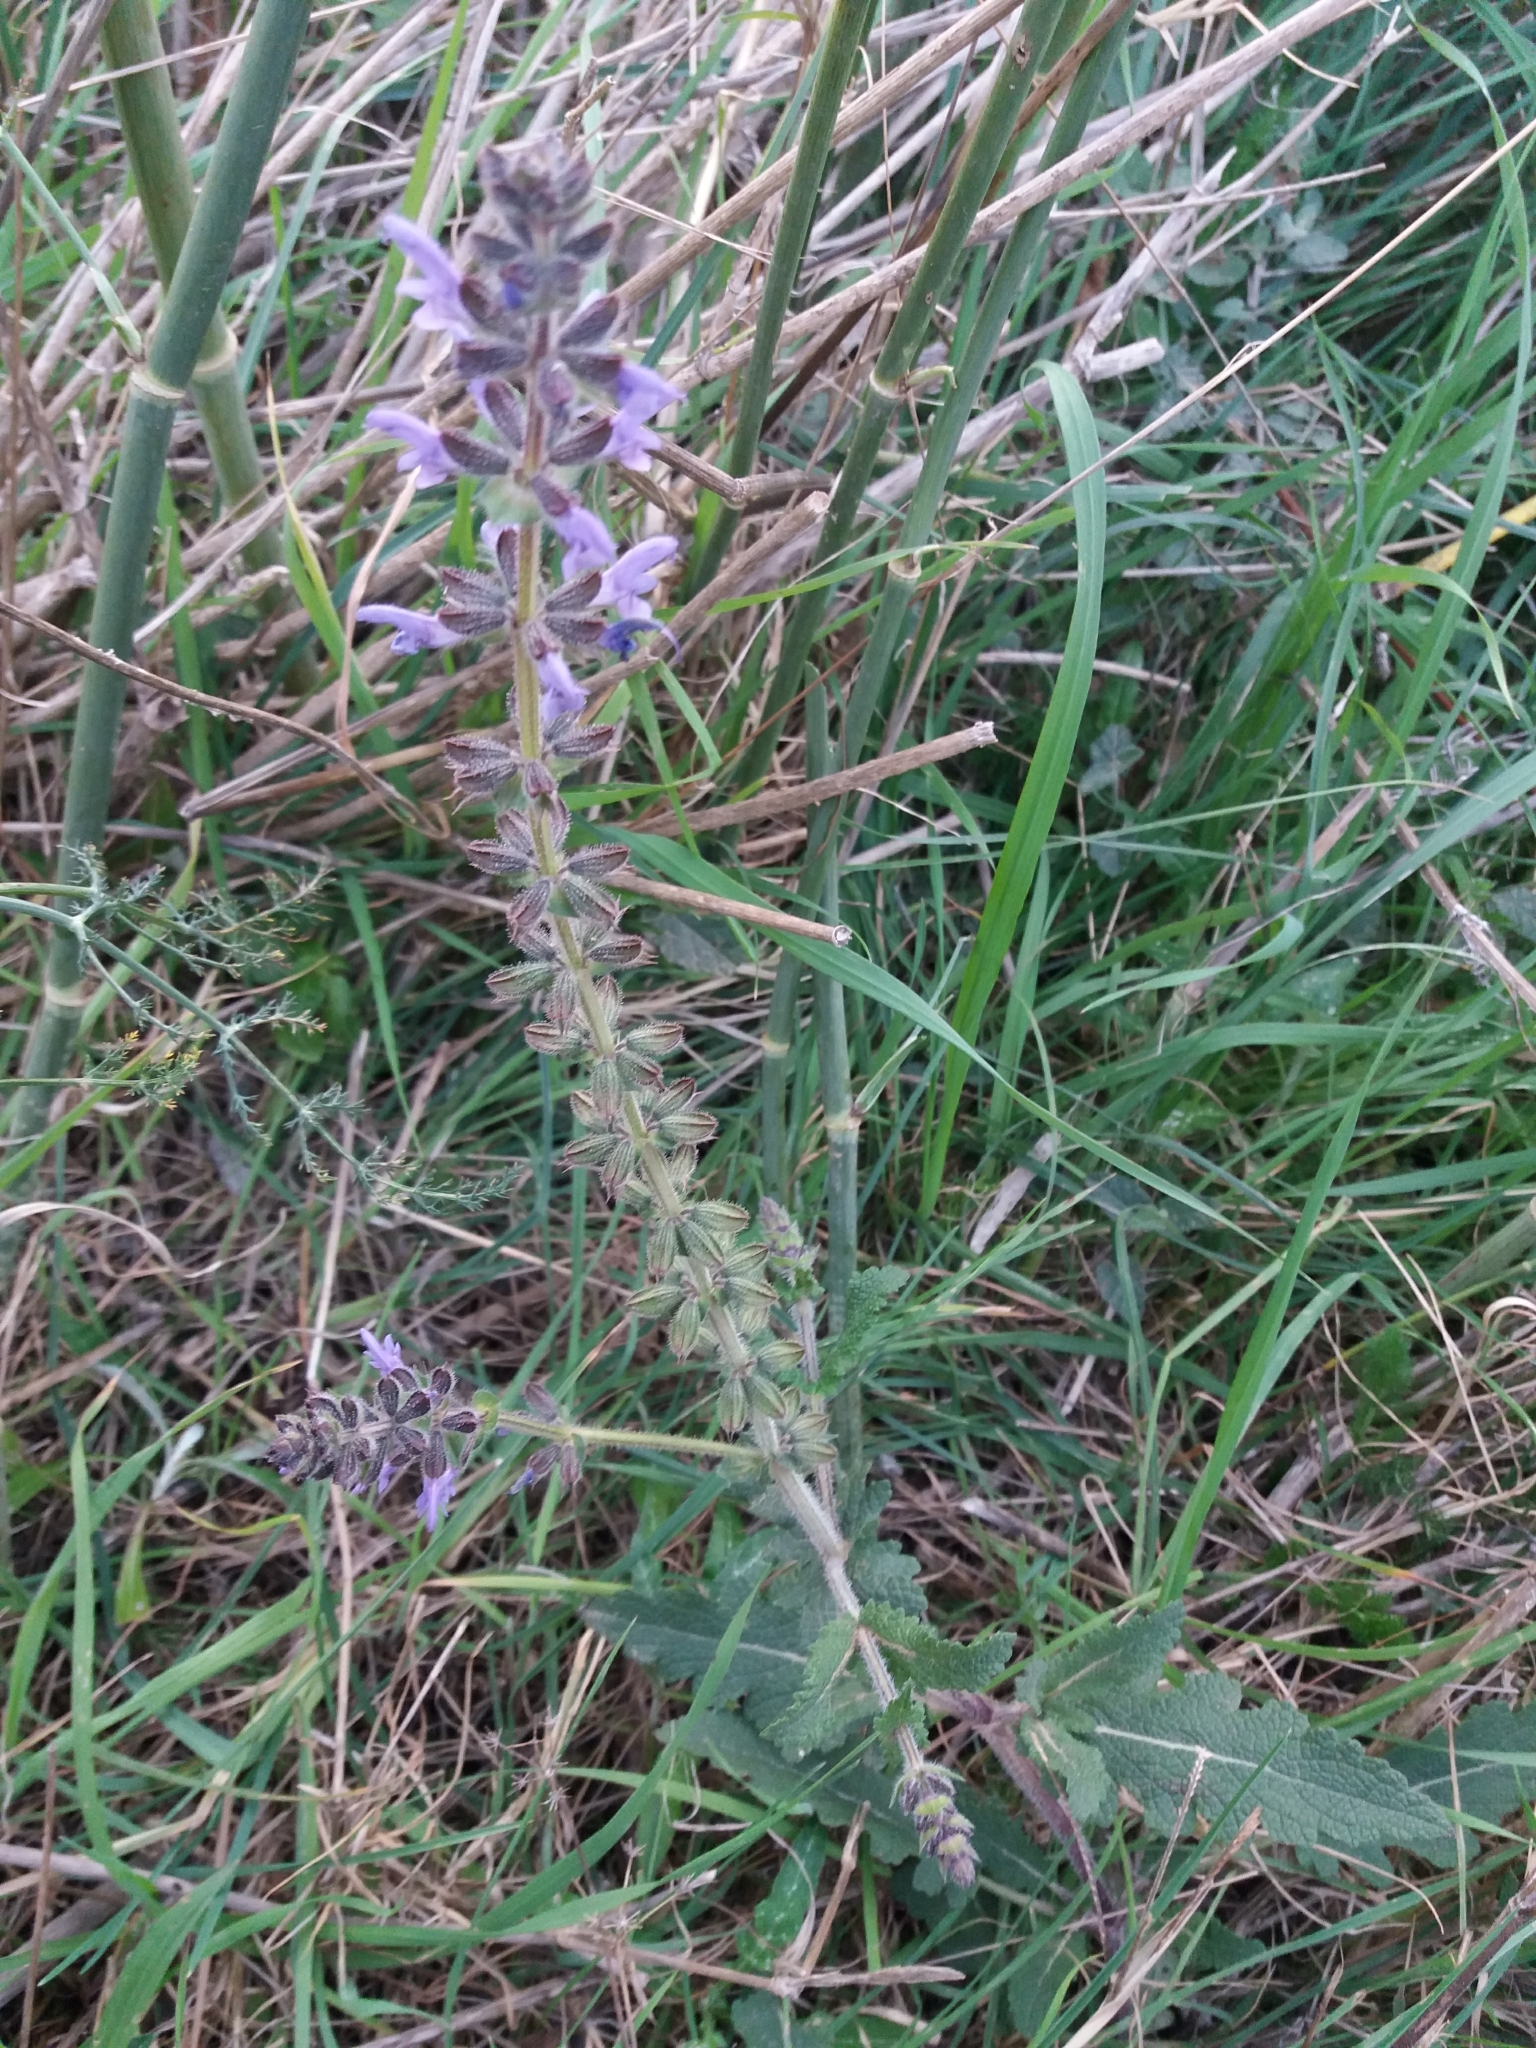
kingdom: Plantae
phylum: Tracheophyta
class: Magnoliopsida
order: Lamiales
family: Lamiaceae
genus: Salvia
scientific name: Salvia verbenaca
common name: Wild clary
